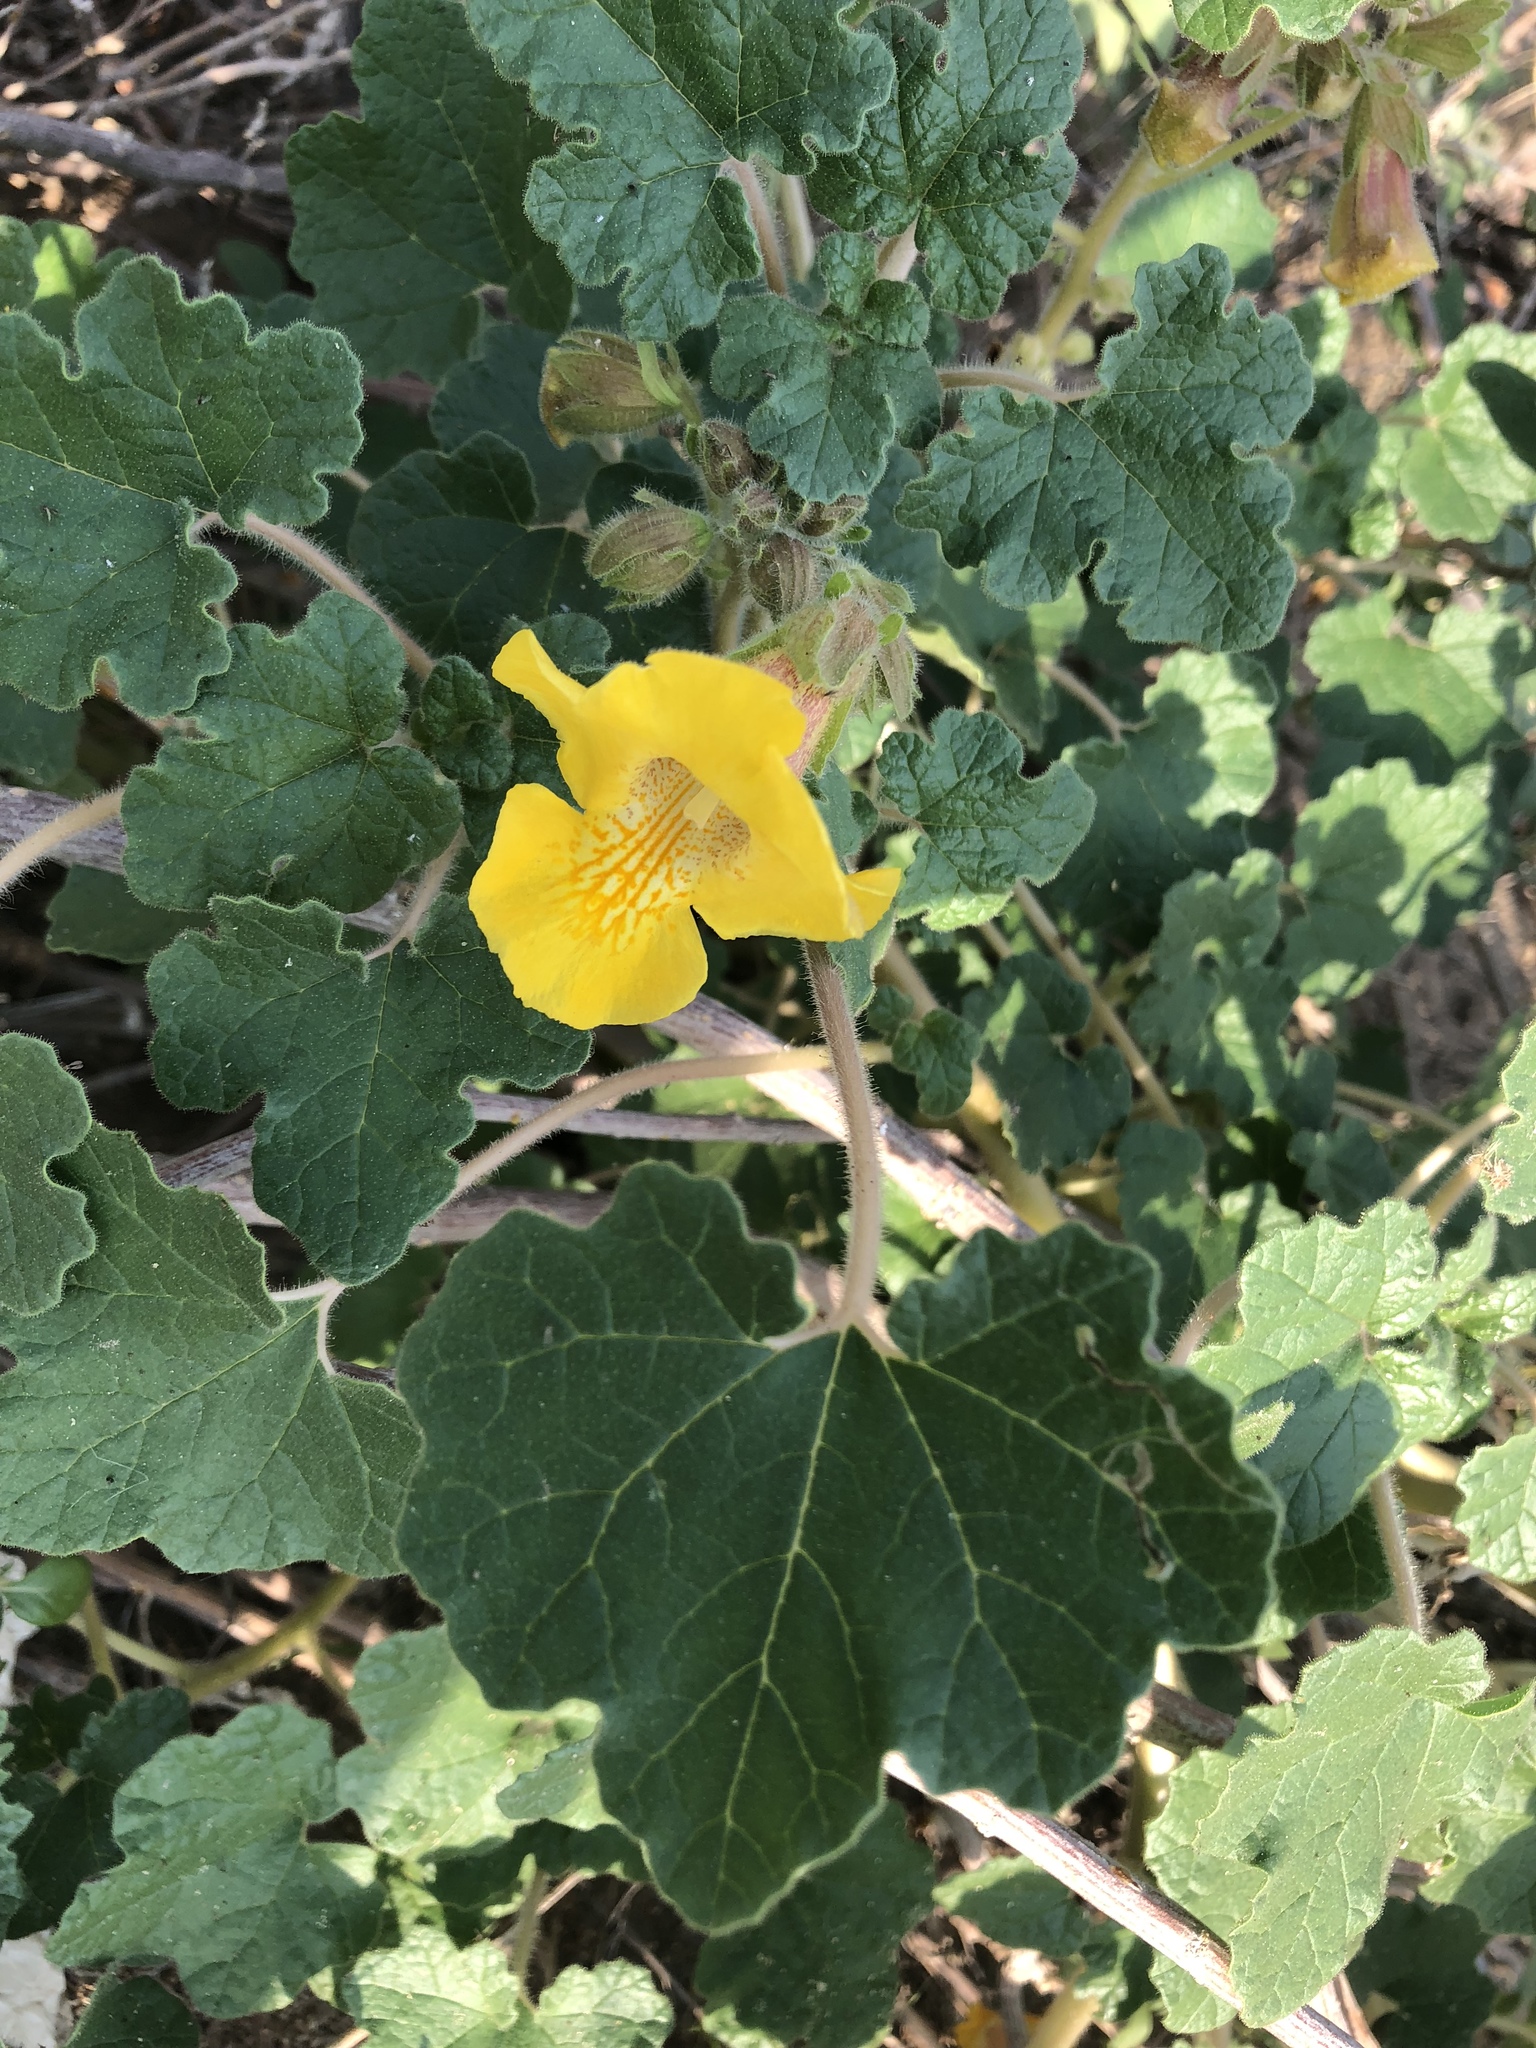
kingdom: Plantae
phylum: Tracheophyta
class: Magnoliopsida
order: Lamiales
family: Martyniaceae
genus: Proboscidea
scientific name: Proboscidea althaeifolia
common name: Desert unicorn-plant
